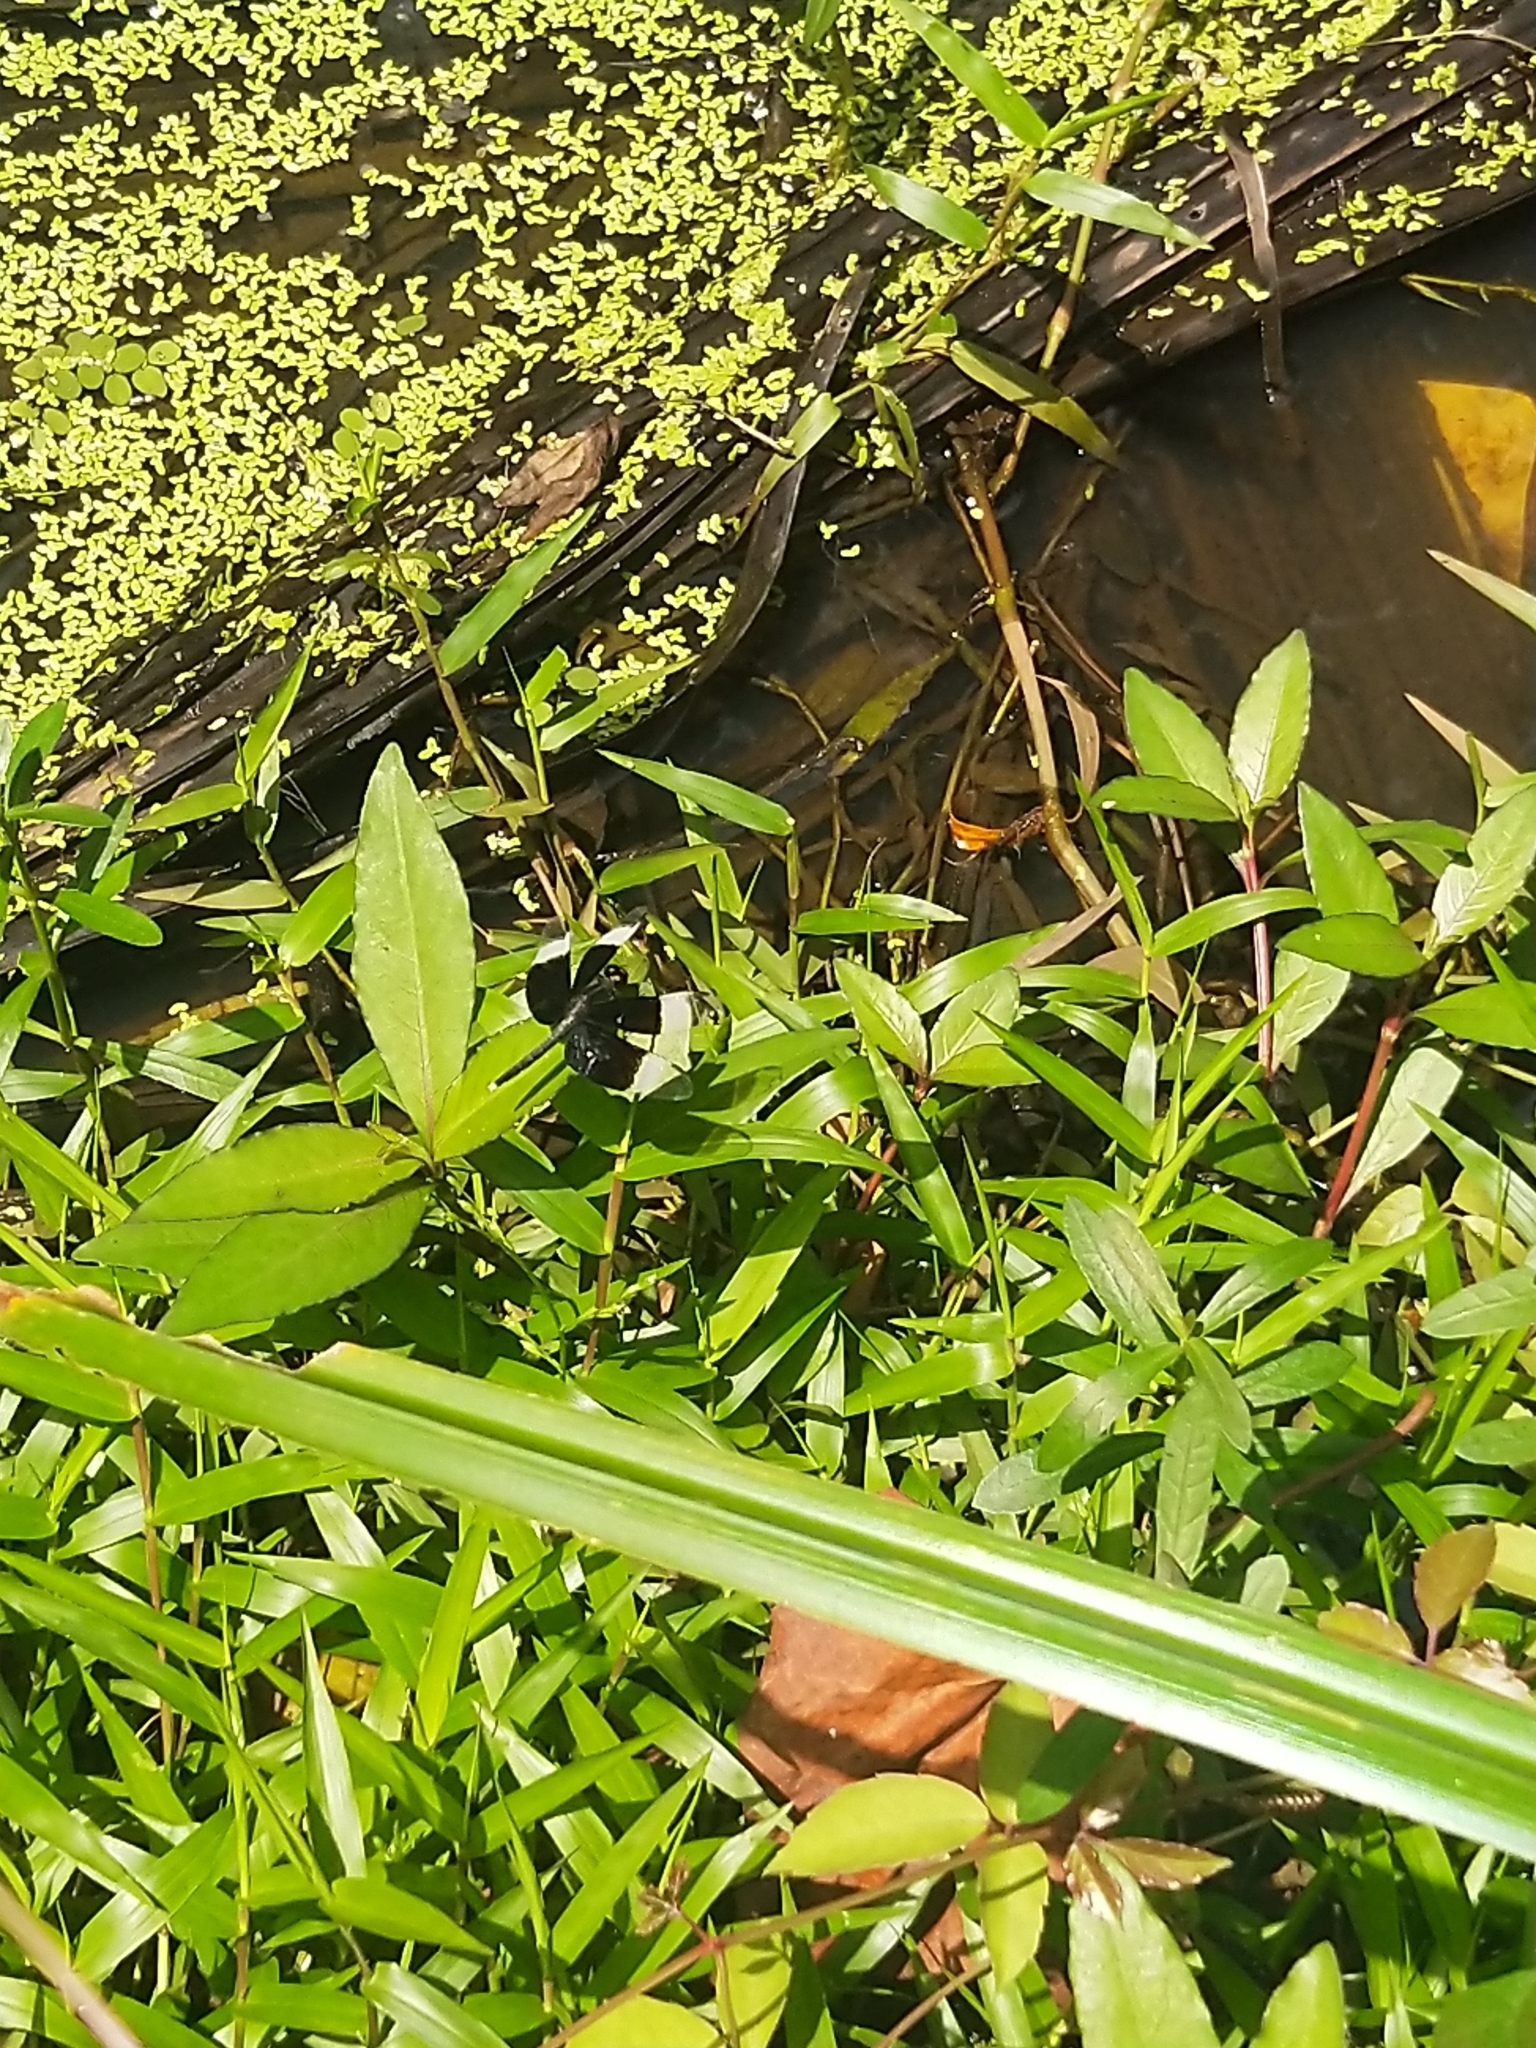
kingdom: Animalia
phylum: Arthropoda
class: Insecta
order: Odonata
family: Libellulidae
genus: Neurothemis
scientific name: Neurothemis tullia
